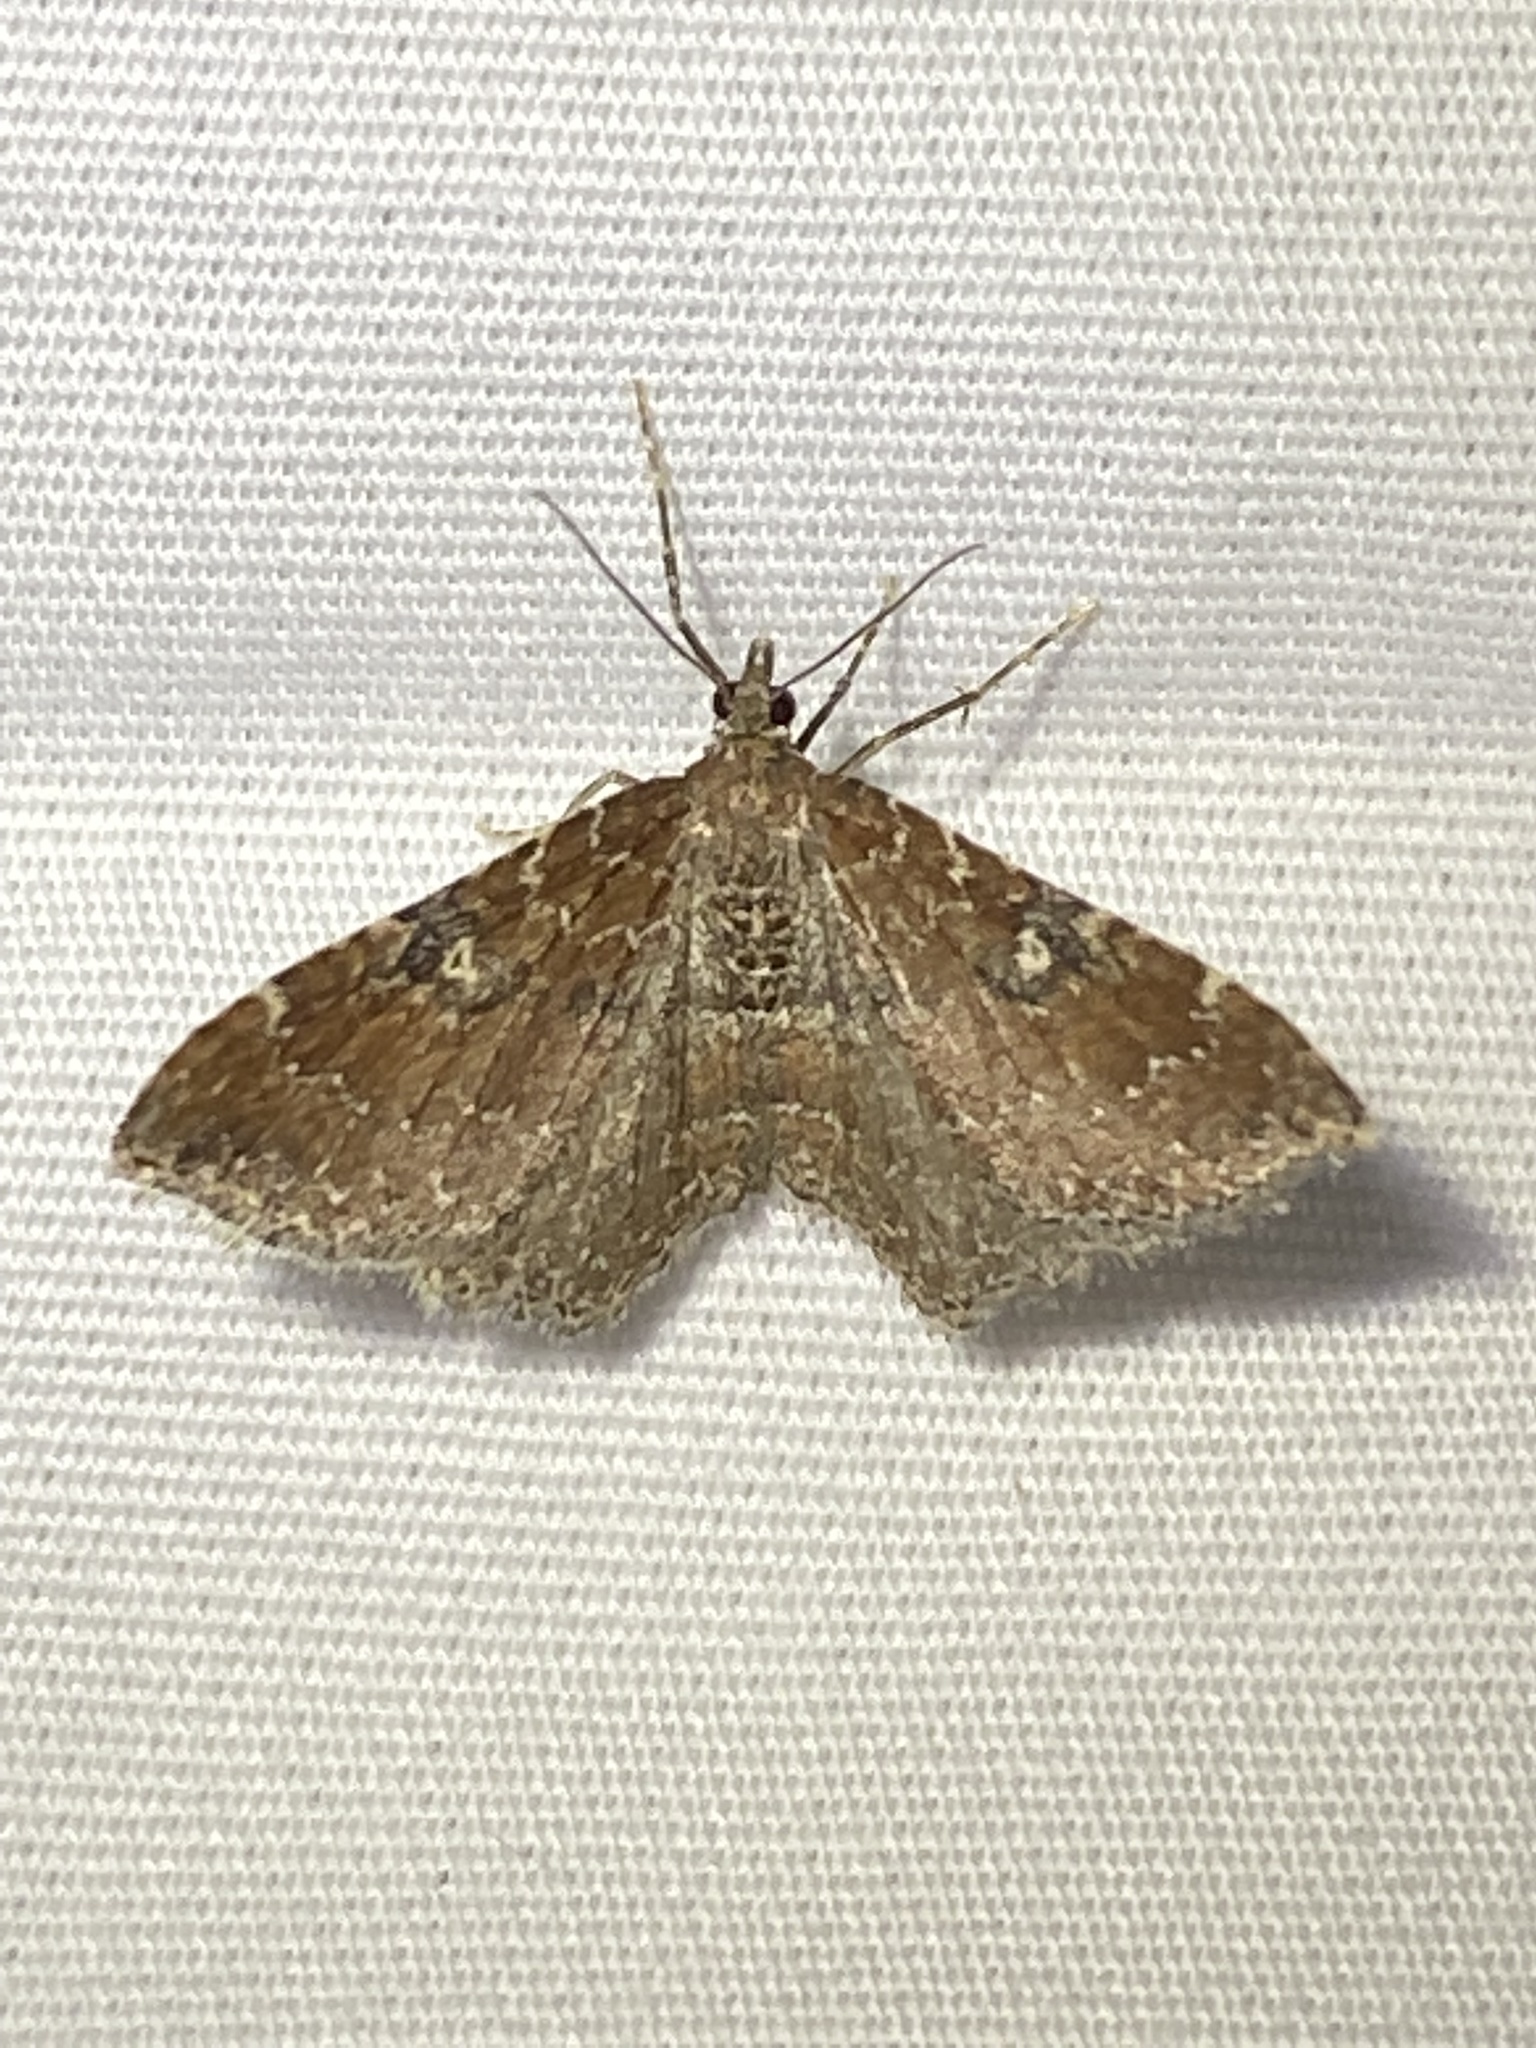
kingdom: Animalia
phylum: Arthropoda
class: Insecta
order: Lepidoptera
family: Geometridae
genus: Orthonama
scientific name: Orthonama obstipata
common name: The gem
